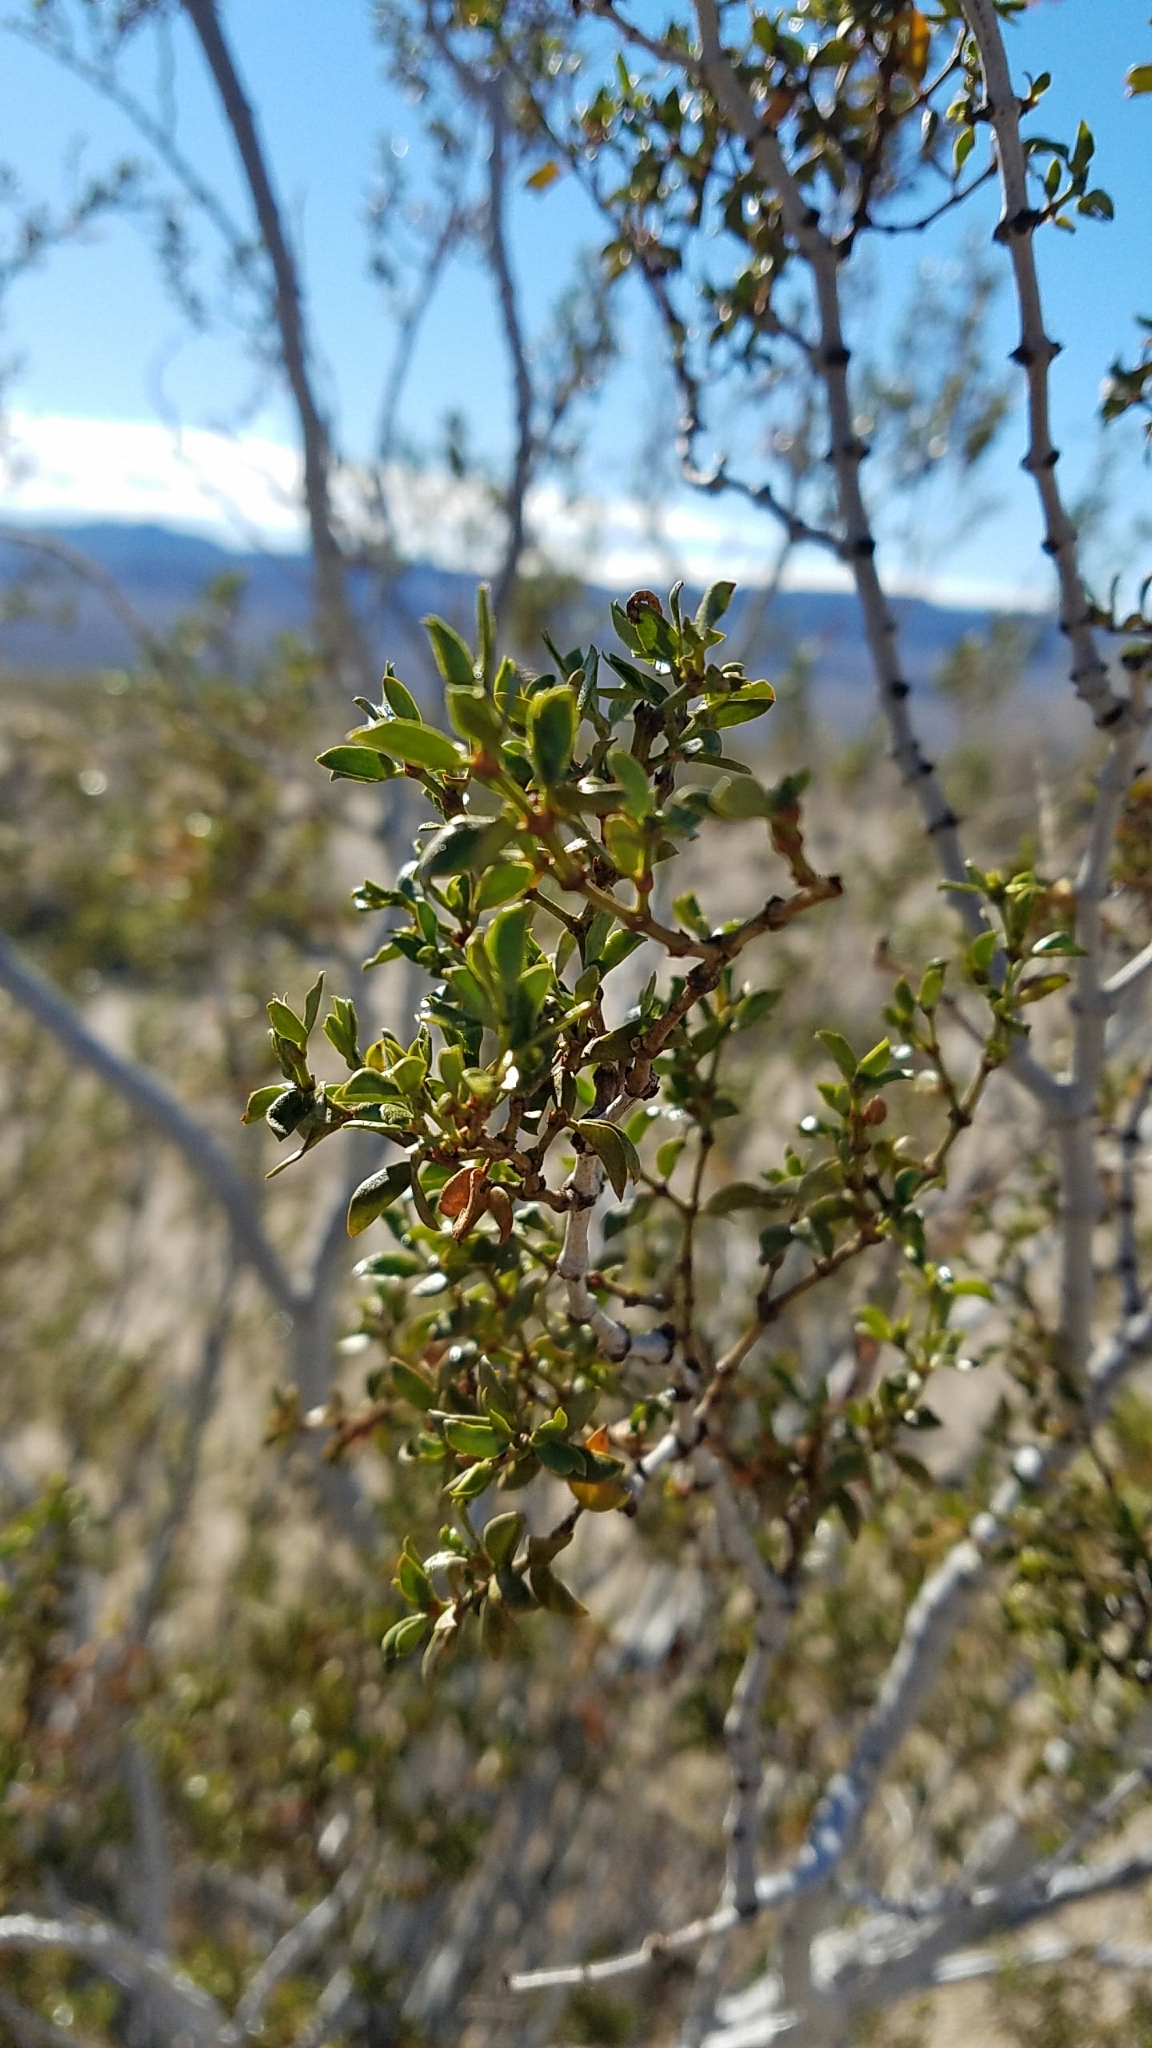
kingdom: Plantae
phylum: Tracheophyta
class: Magnoliopsida
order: Zygophyllales
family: Zygophyllaceae
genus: Larrea
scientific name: Larrea tridentata
